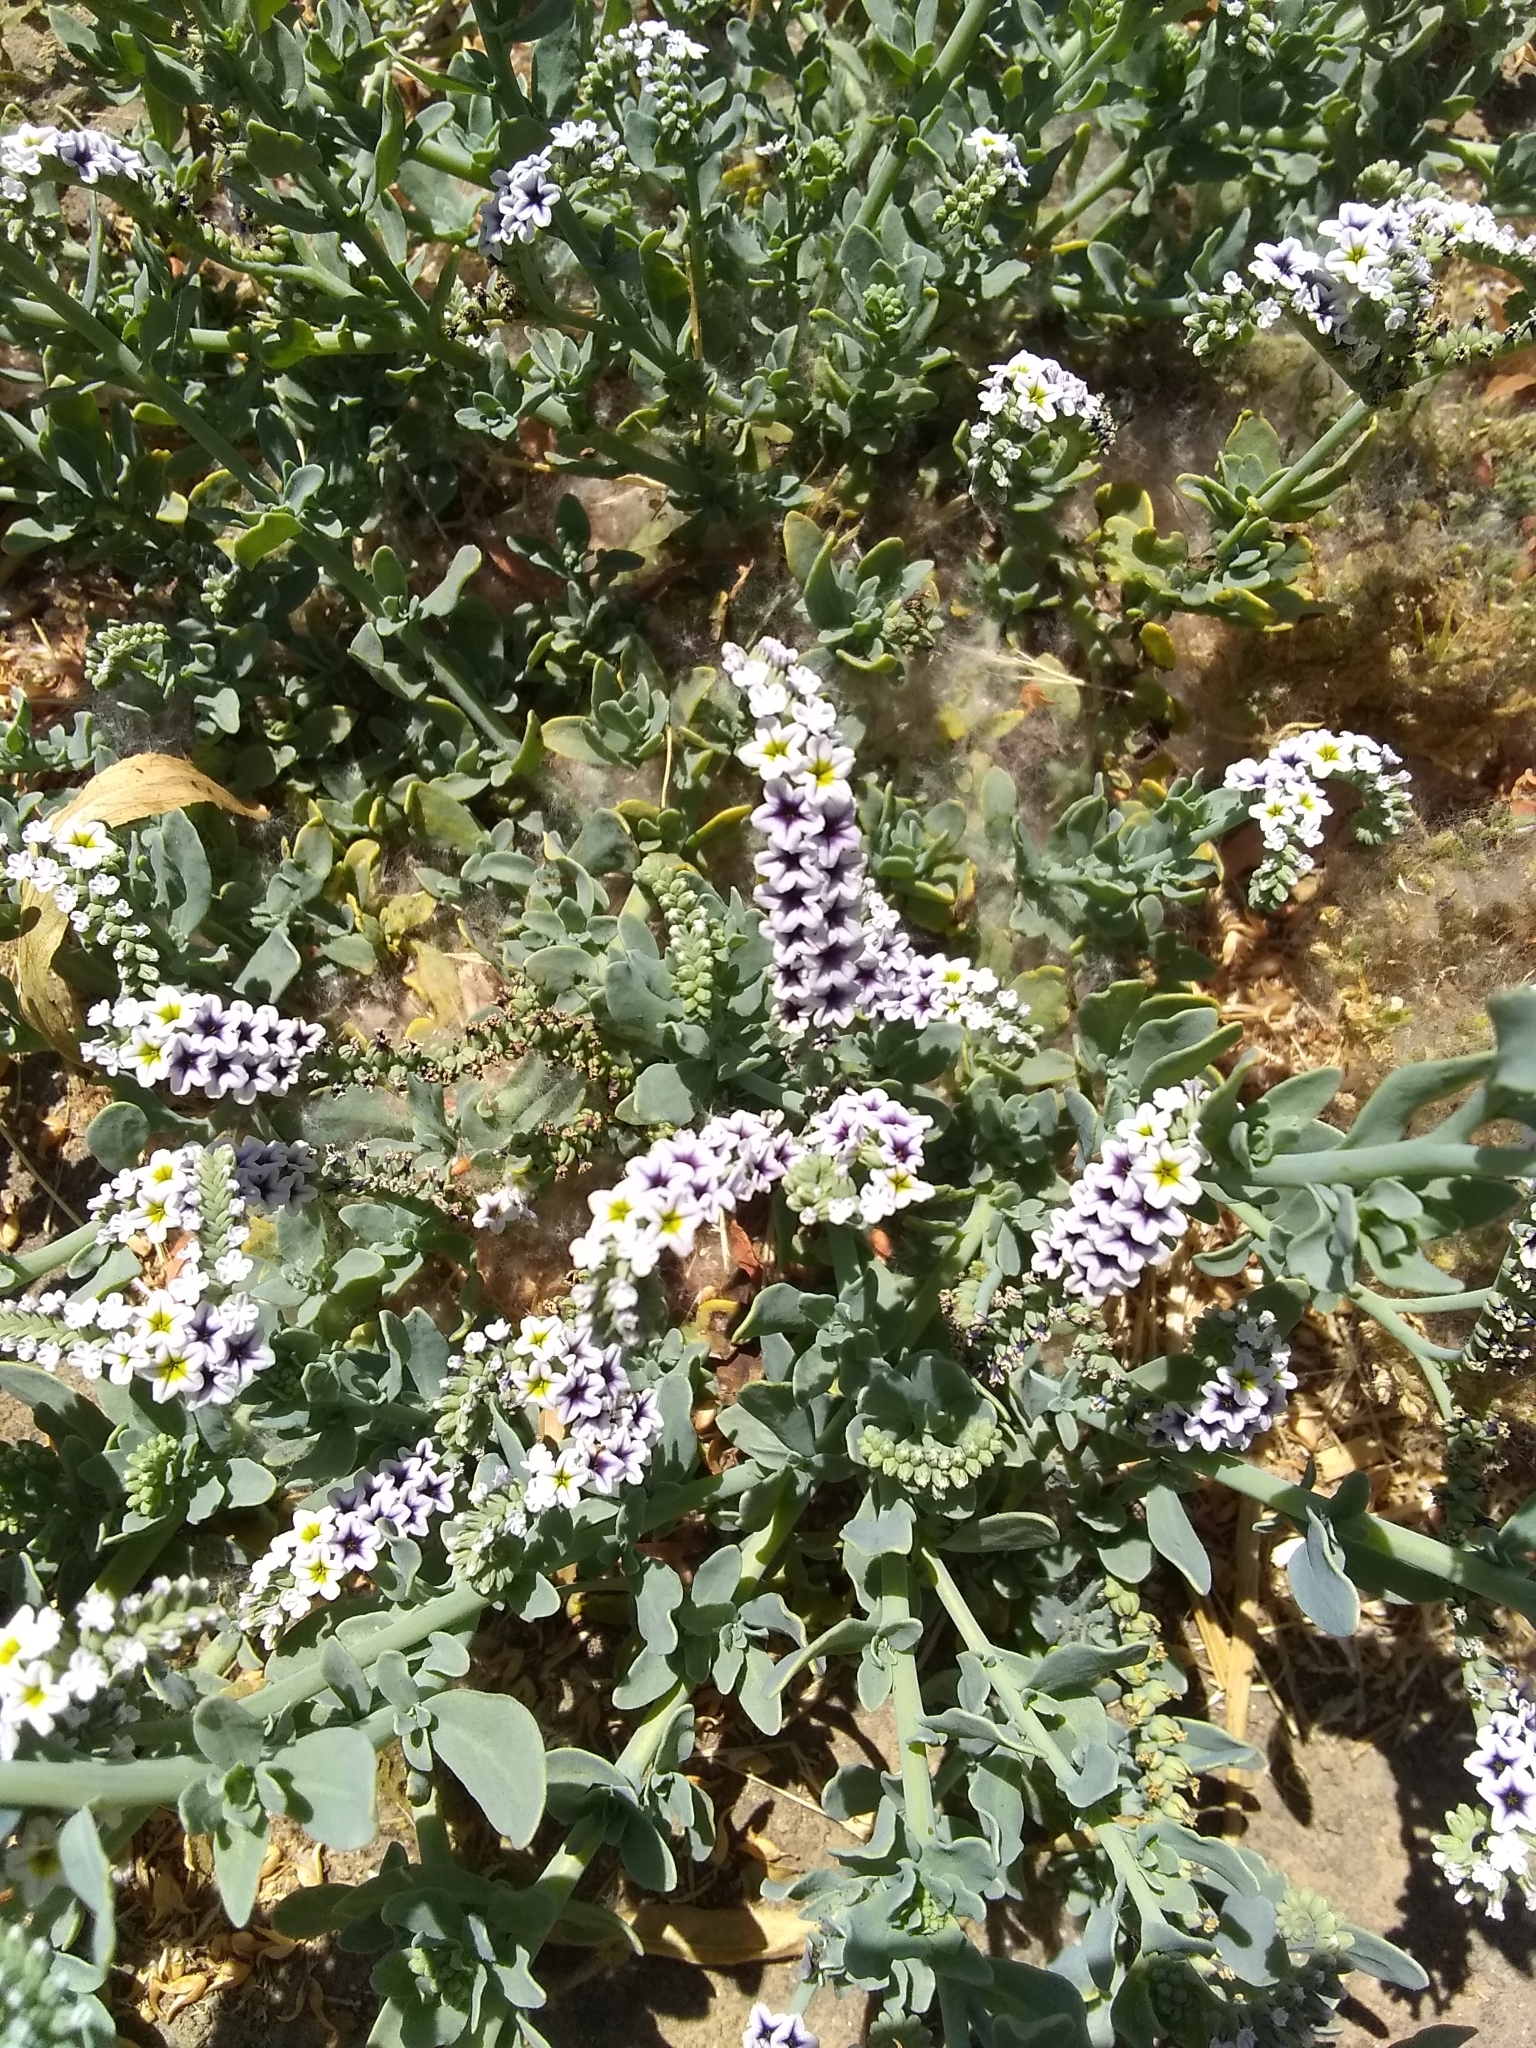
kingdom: Plantae
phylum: Tracheophyta
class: Magnoliopsida
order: Boraginales
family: Heliotropiaceae
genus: Heliotropium
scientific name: Heliotropium curassavicum
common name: Seaside heliotrope
